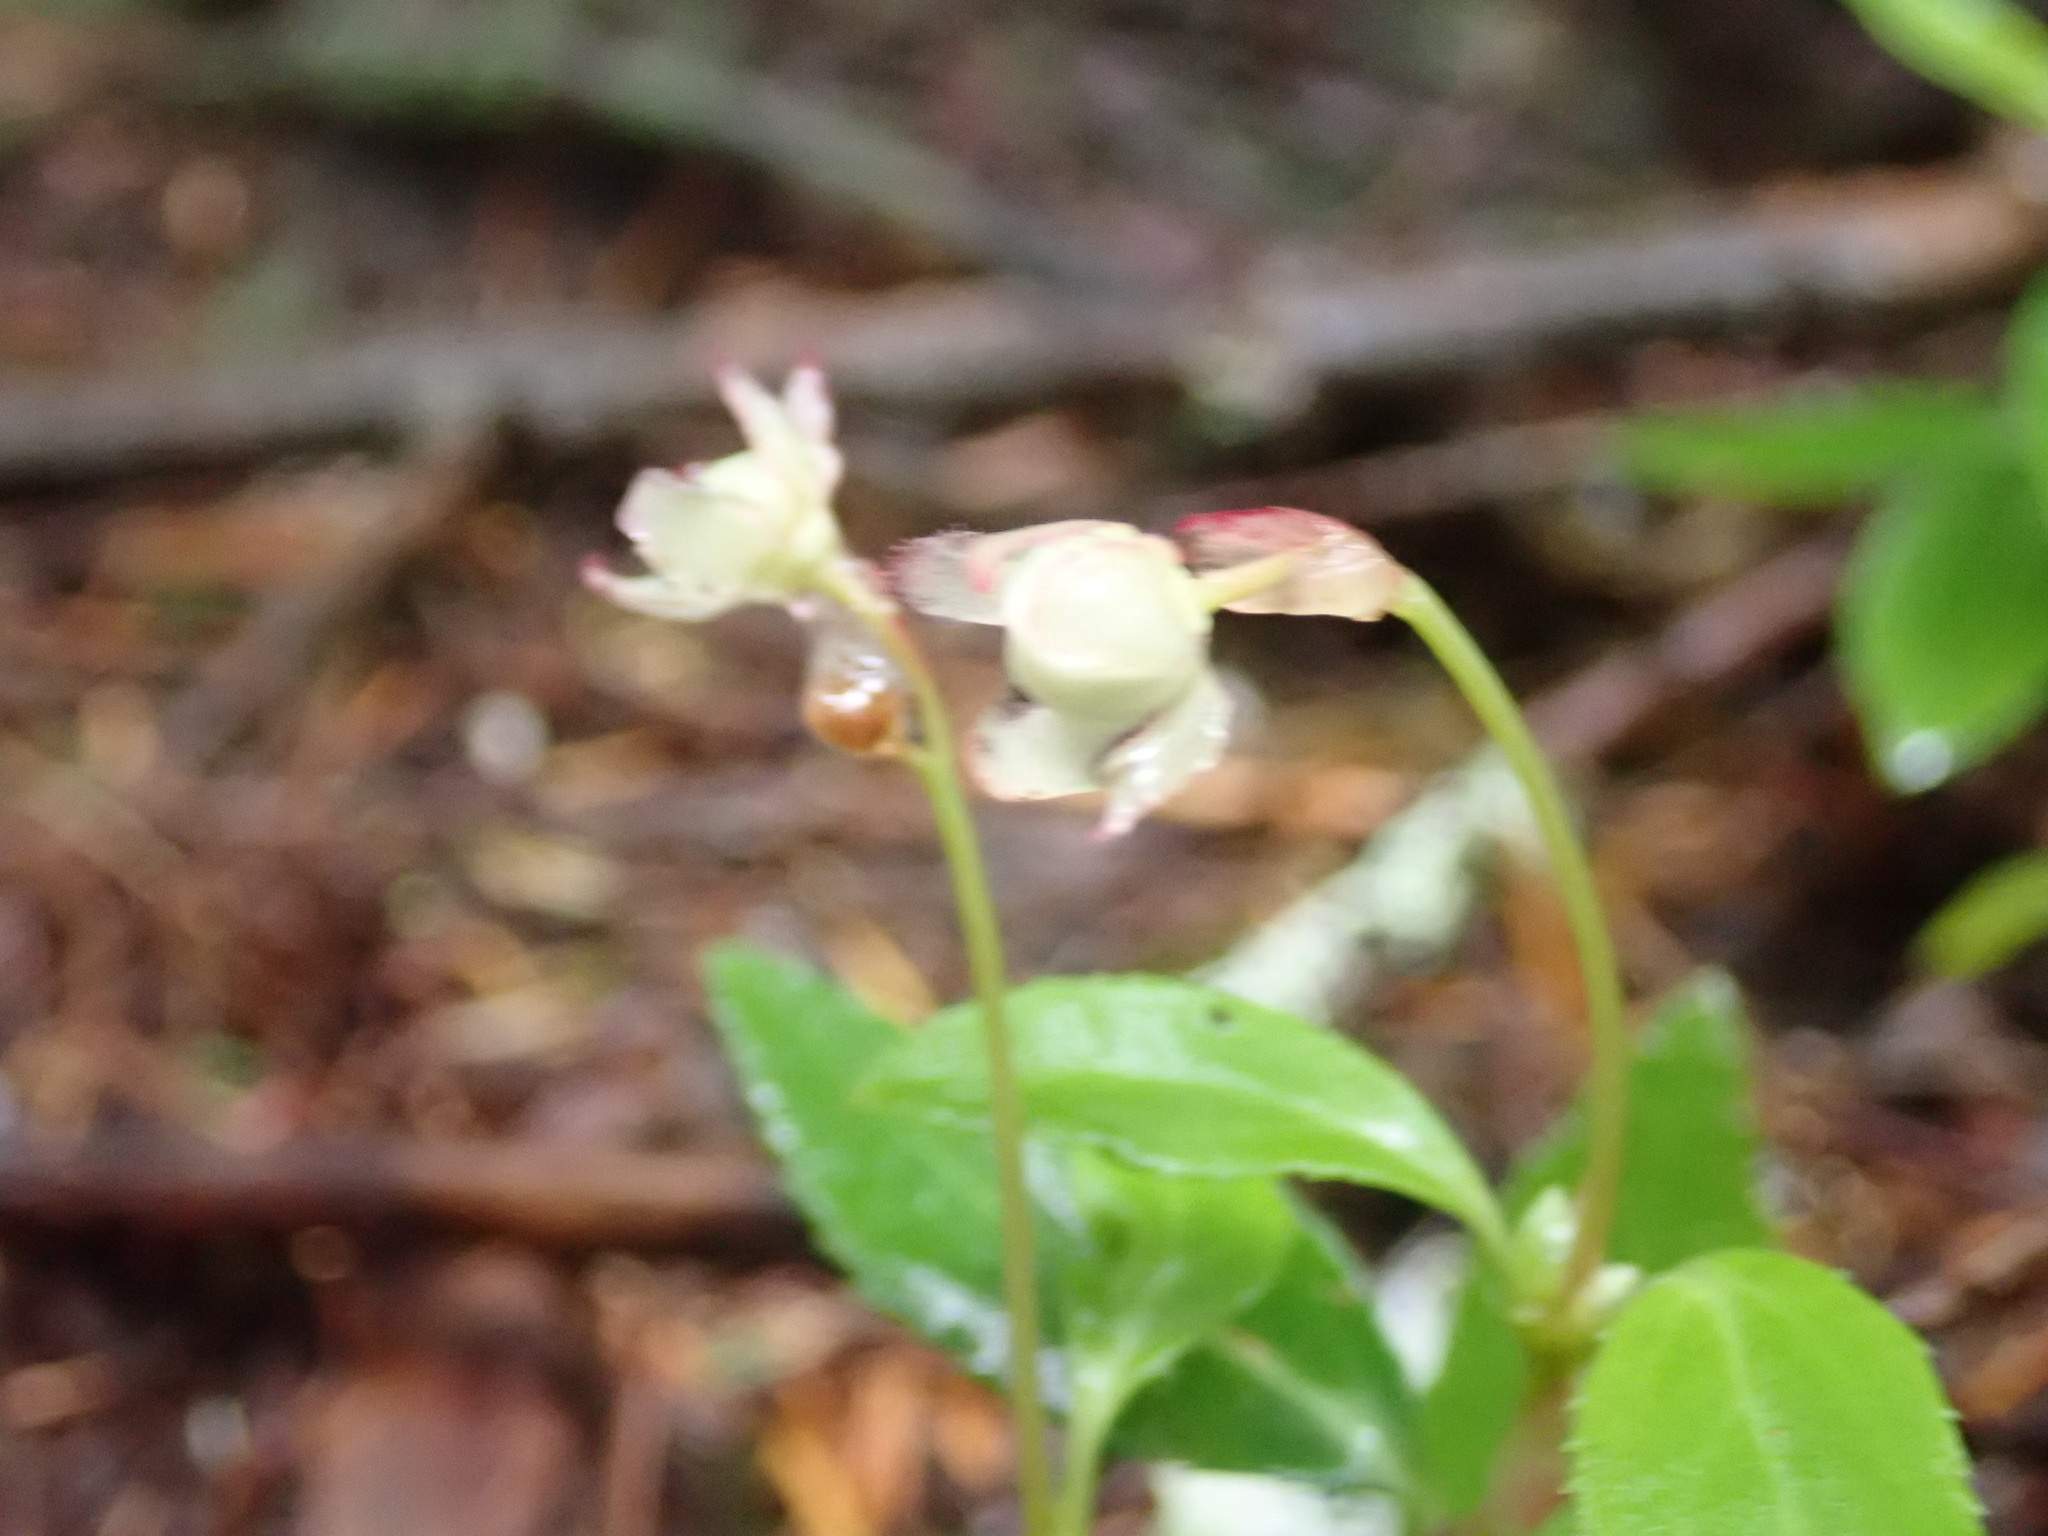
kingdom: Plantae
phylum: Tracheophyta
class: Magnoliopsida
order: Ericales
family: Ericaceae
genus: Chimaphila
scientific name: Chimaphila menziesii
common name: Menzies' pipsissewa
